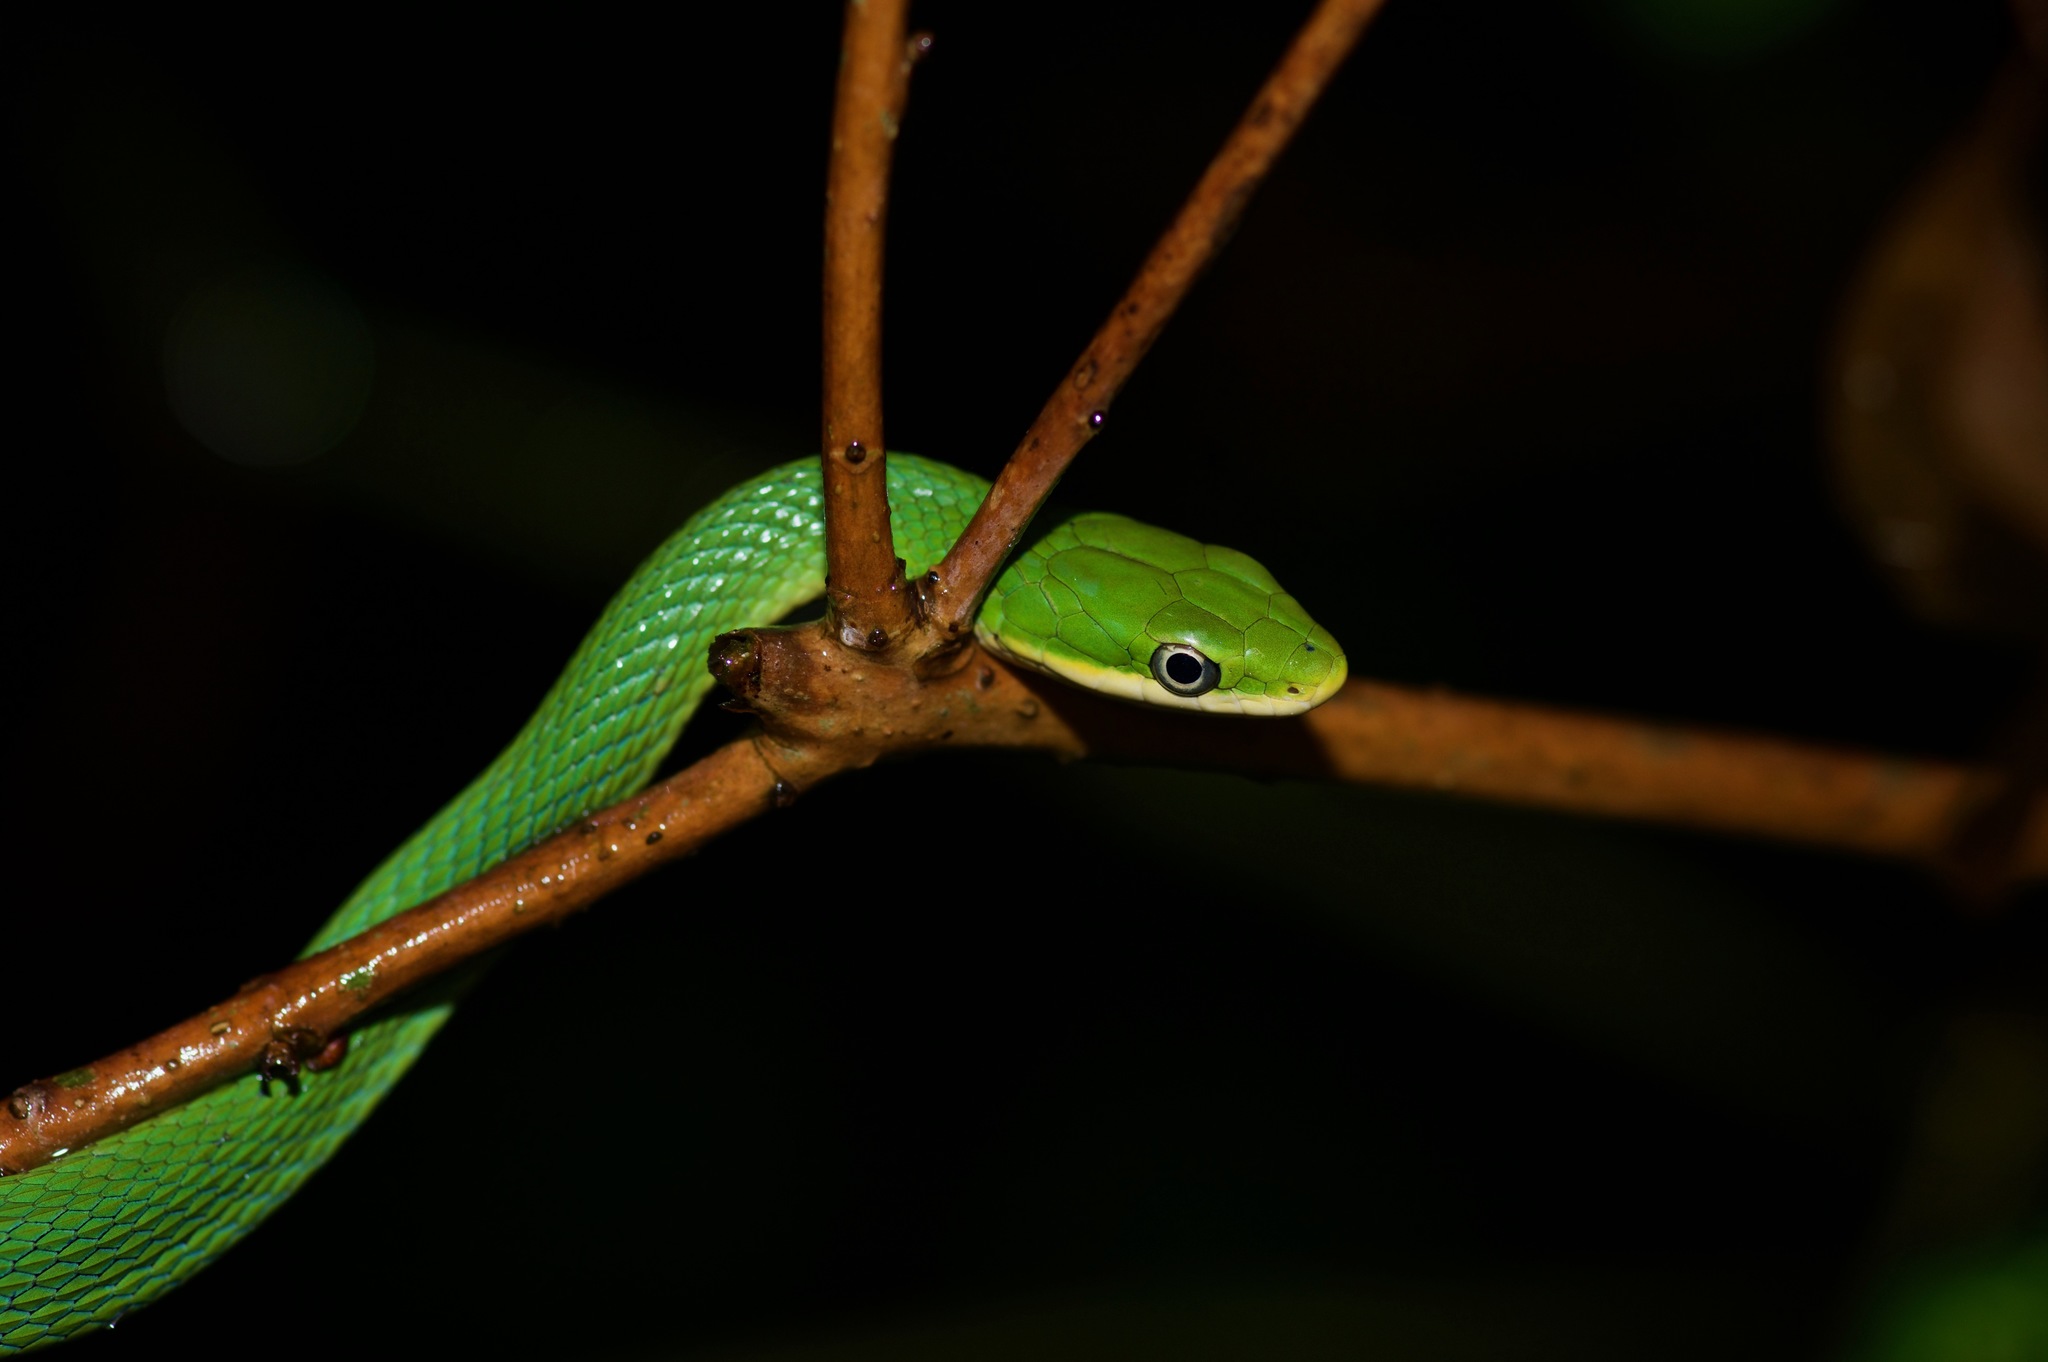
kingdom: Animalia
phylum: Chordata
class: Squamata
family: Colubridae
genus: Opheodrys
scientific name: Opheodrys aestivus
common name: Rough greensnake
